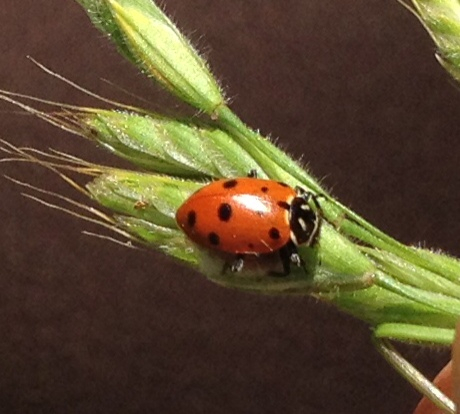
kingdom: Animalia
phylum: Arthropoda
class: Insecta
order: Coleoptera
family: Coccinellidae
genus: Hippodamia
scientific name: Hippodamia convergens
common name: Convergent lady beetle
